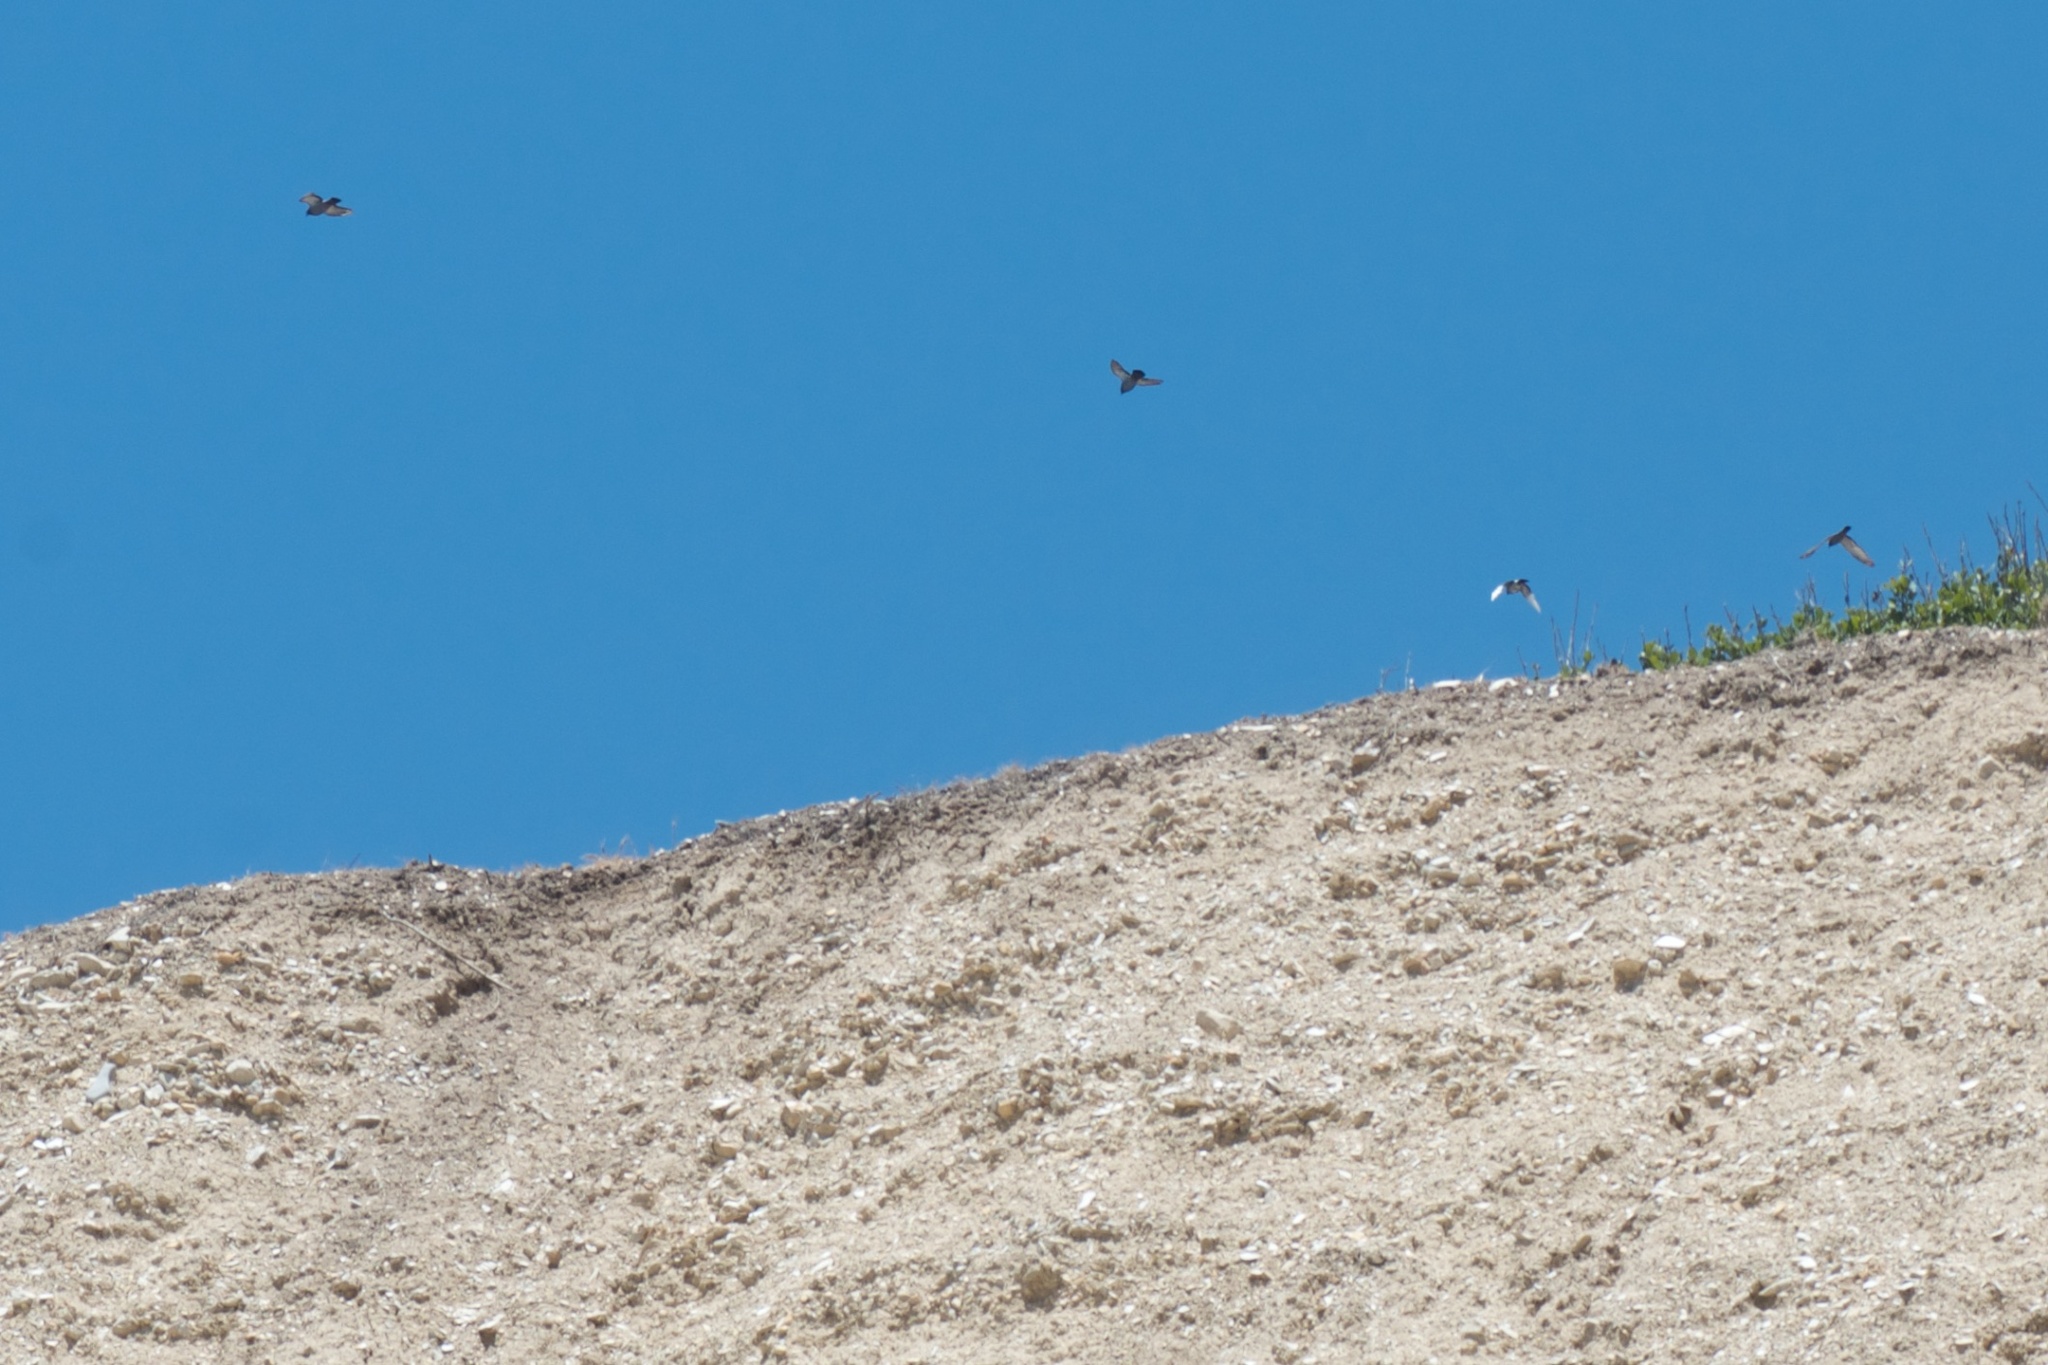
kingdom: Animalia
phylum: Chordata
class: Aves
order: Columbiformes
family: Columbidae
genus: Columba
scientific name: Columba livia
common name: Rock pigeon
